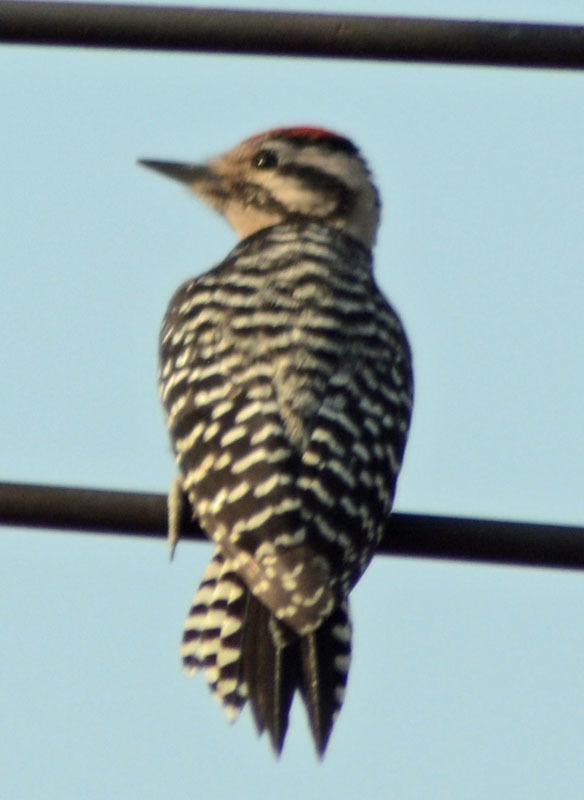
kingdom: Animalia
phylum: Chordata
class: Aves
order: Piciformes
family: Picidae
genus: Dryobates
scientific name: Dryobates scalaris
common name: Ladder-backed woodpecker
